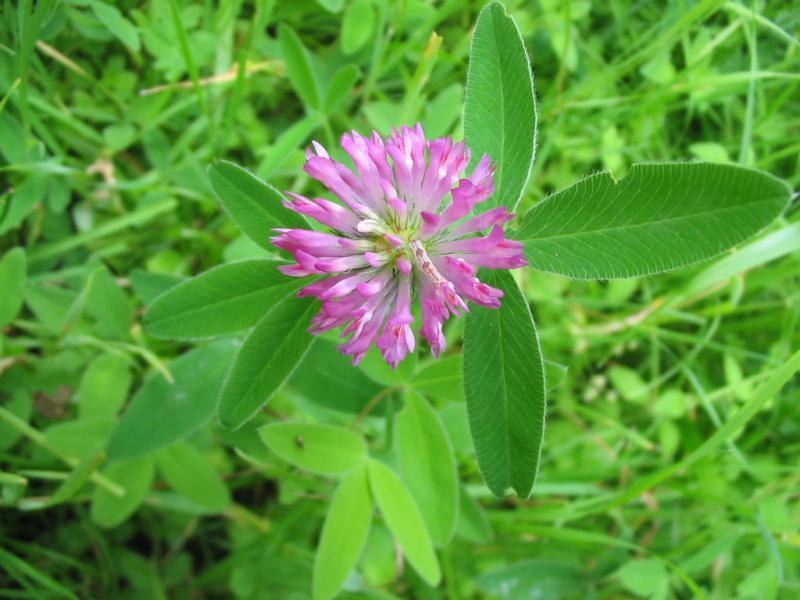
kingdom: Plantae
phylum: Tracheophyta
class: Magnoliopsida
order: Fabales
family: Fabaceae
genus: Trifolium
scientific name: Trifolium medium
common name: Zigzag clover
